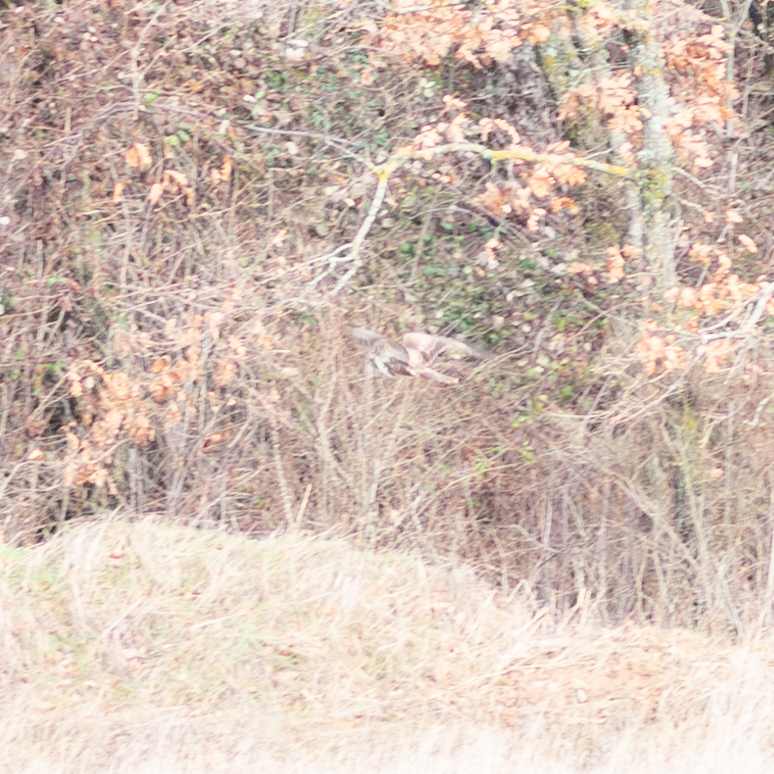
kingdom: Animalia
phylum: Chordata
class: Aves
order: Accipitriformes
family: Accipitridae
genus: Buteo
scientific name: Buteo buteo
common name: Common buzzard
